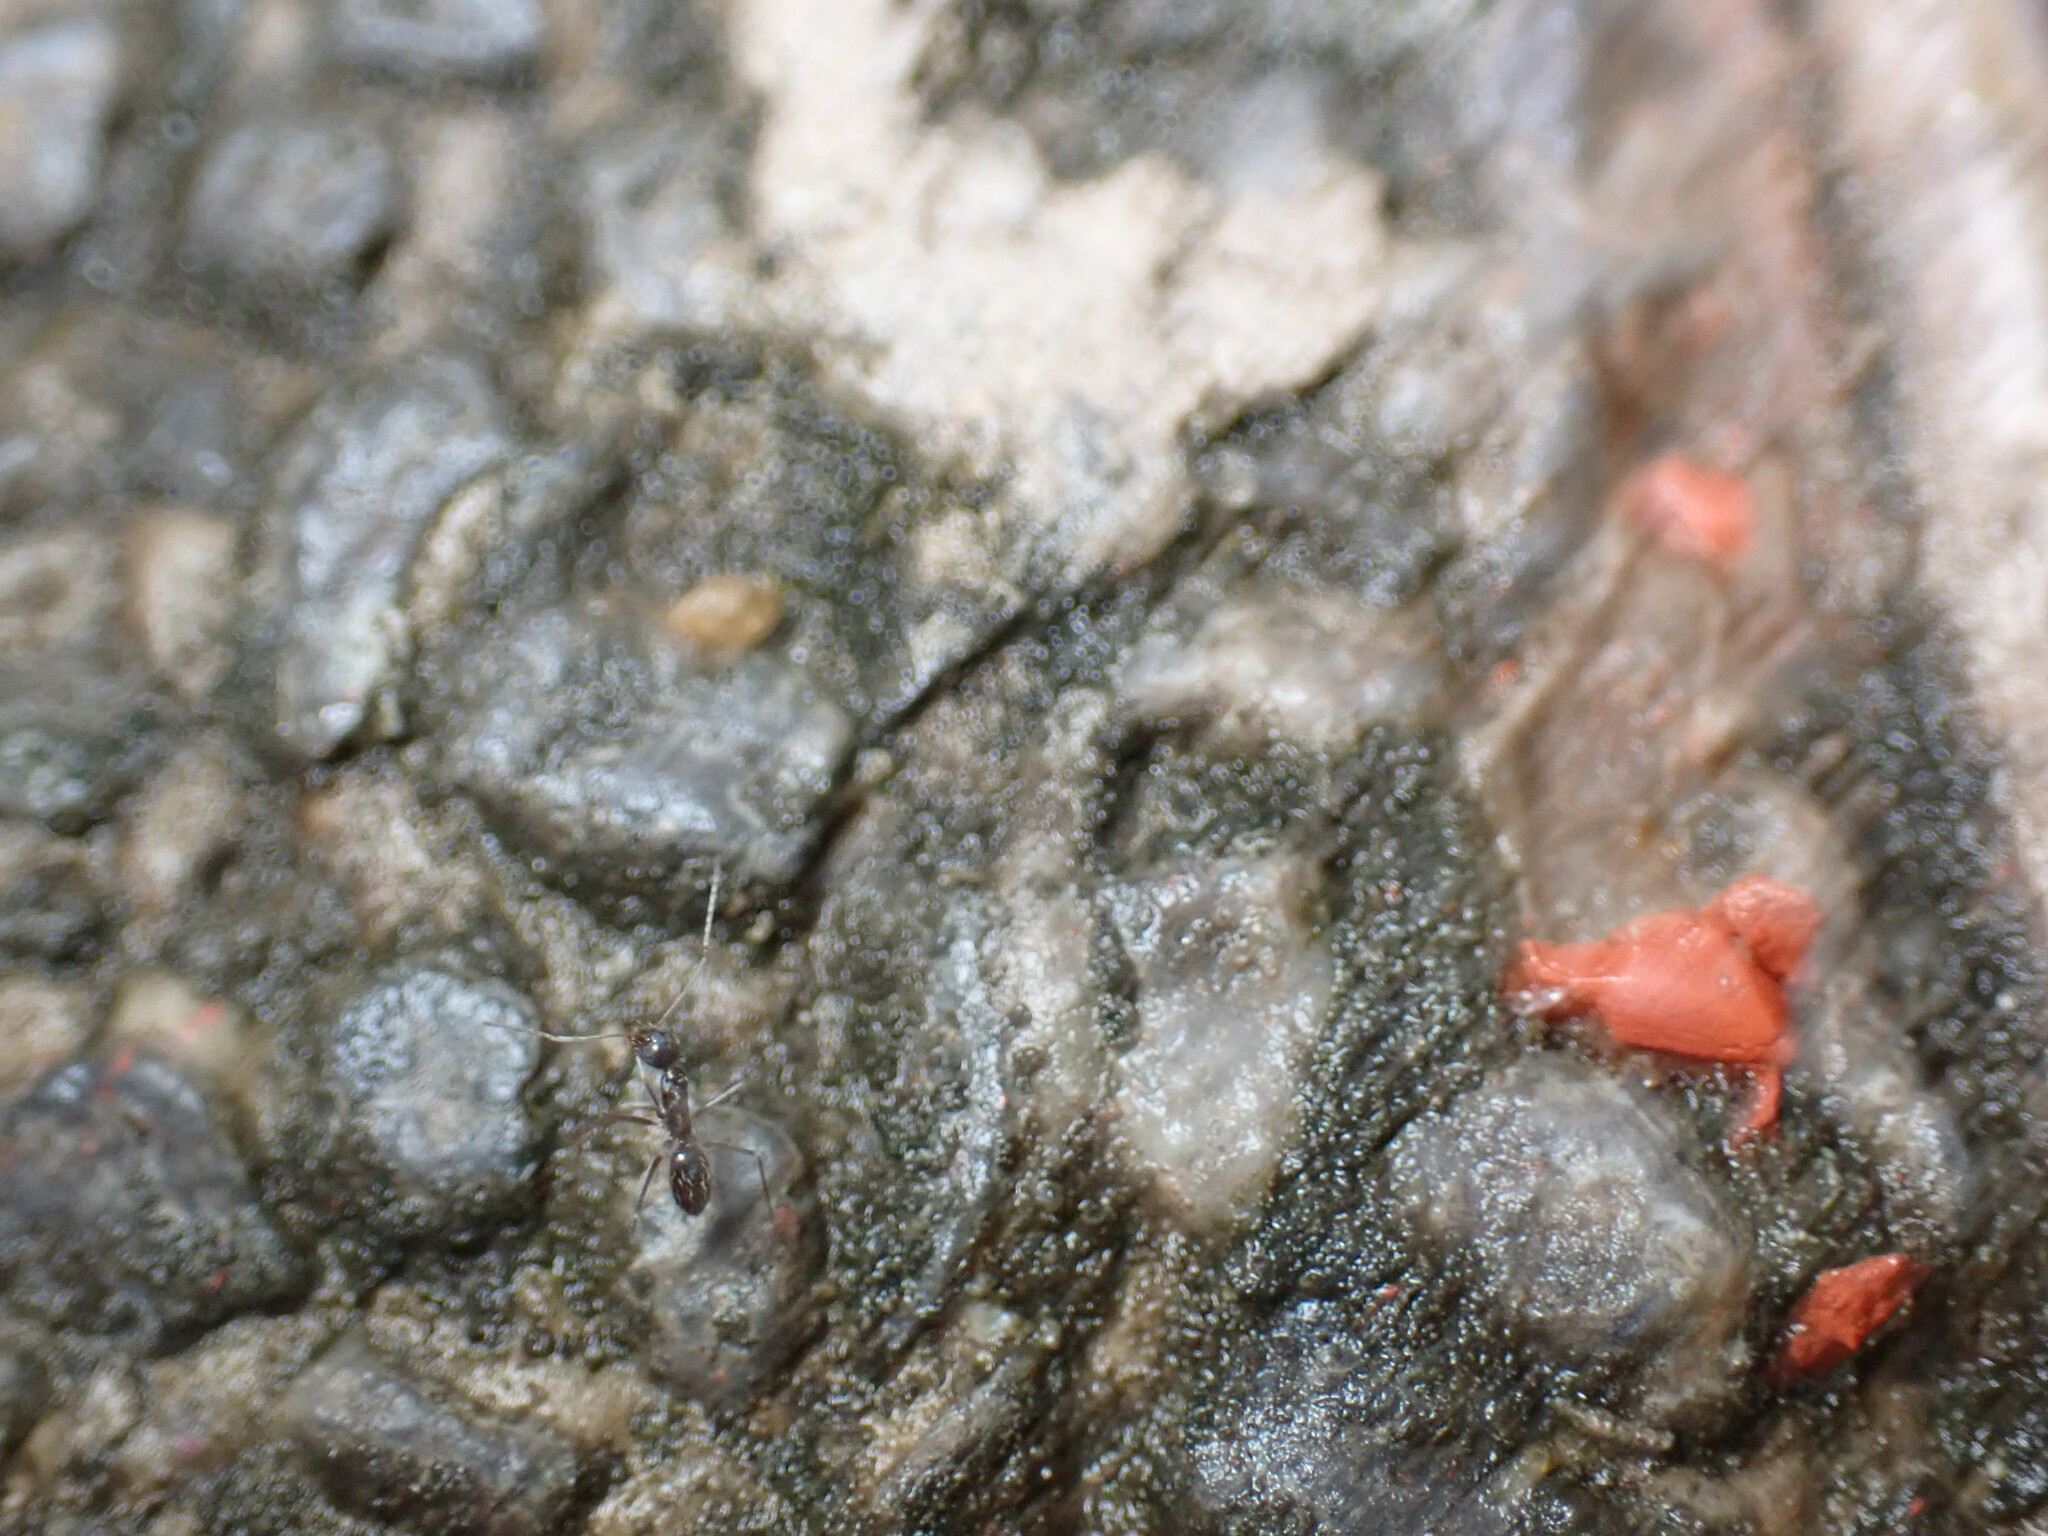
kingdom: Animalia
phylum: Arthropoda
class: Insecta
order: Hymenoptera
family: Formicidae
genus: Paratrechina
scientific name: Paratrechina longicornis
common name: Longhorned crazy ant
